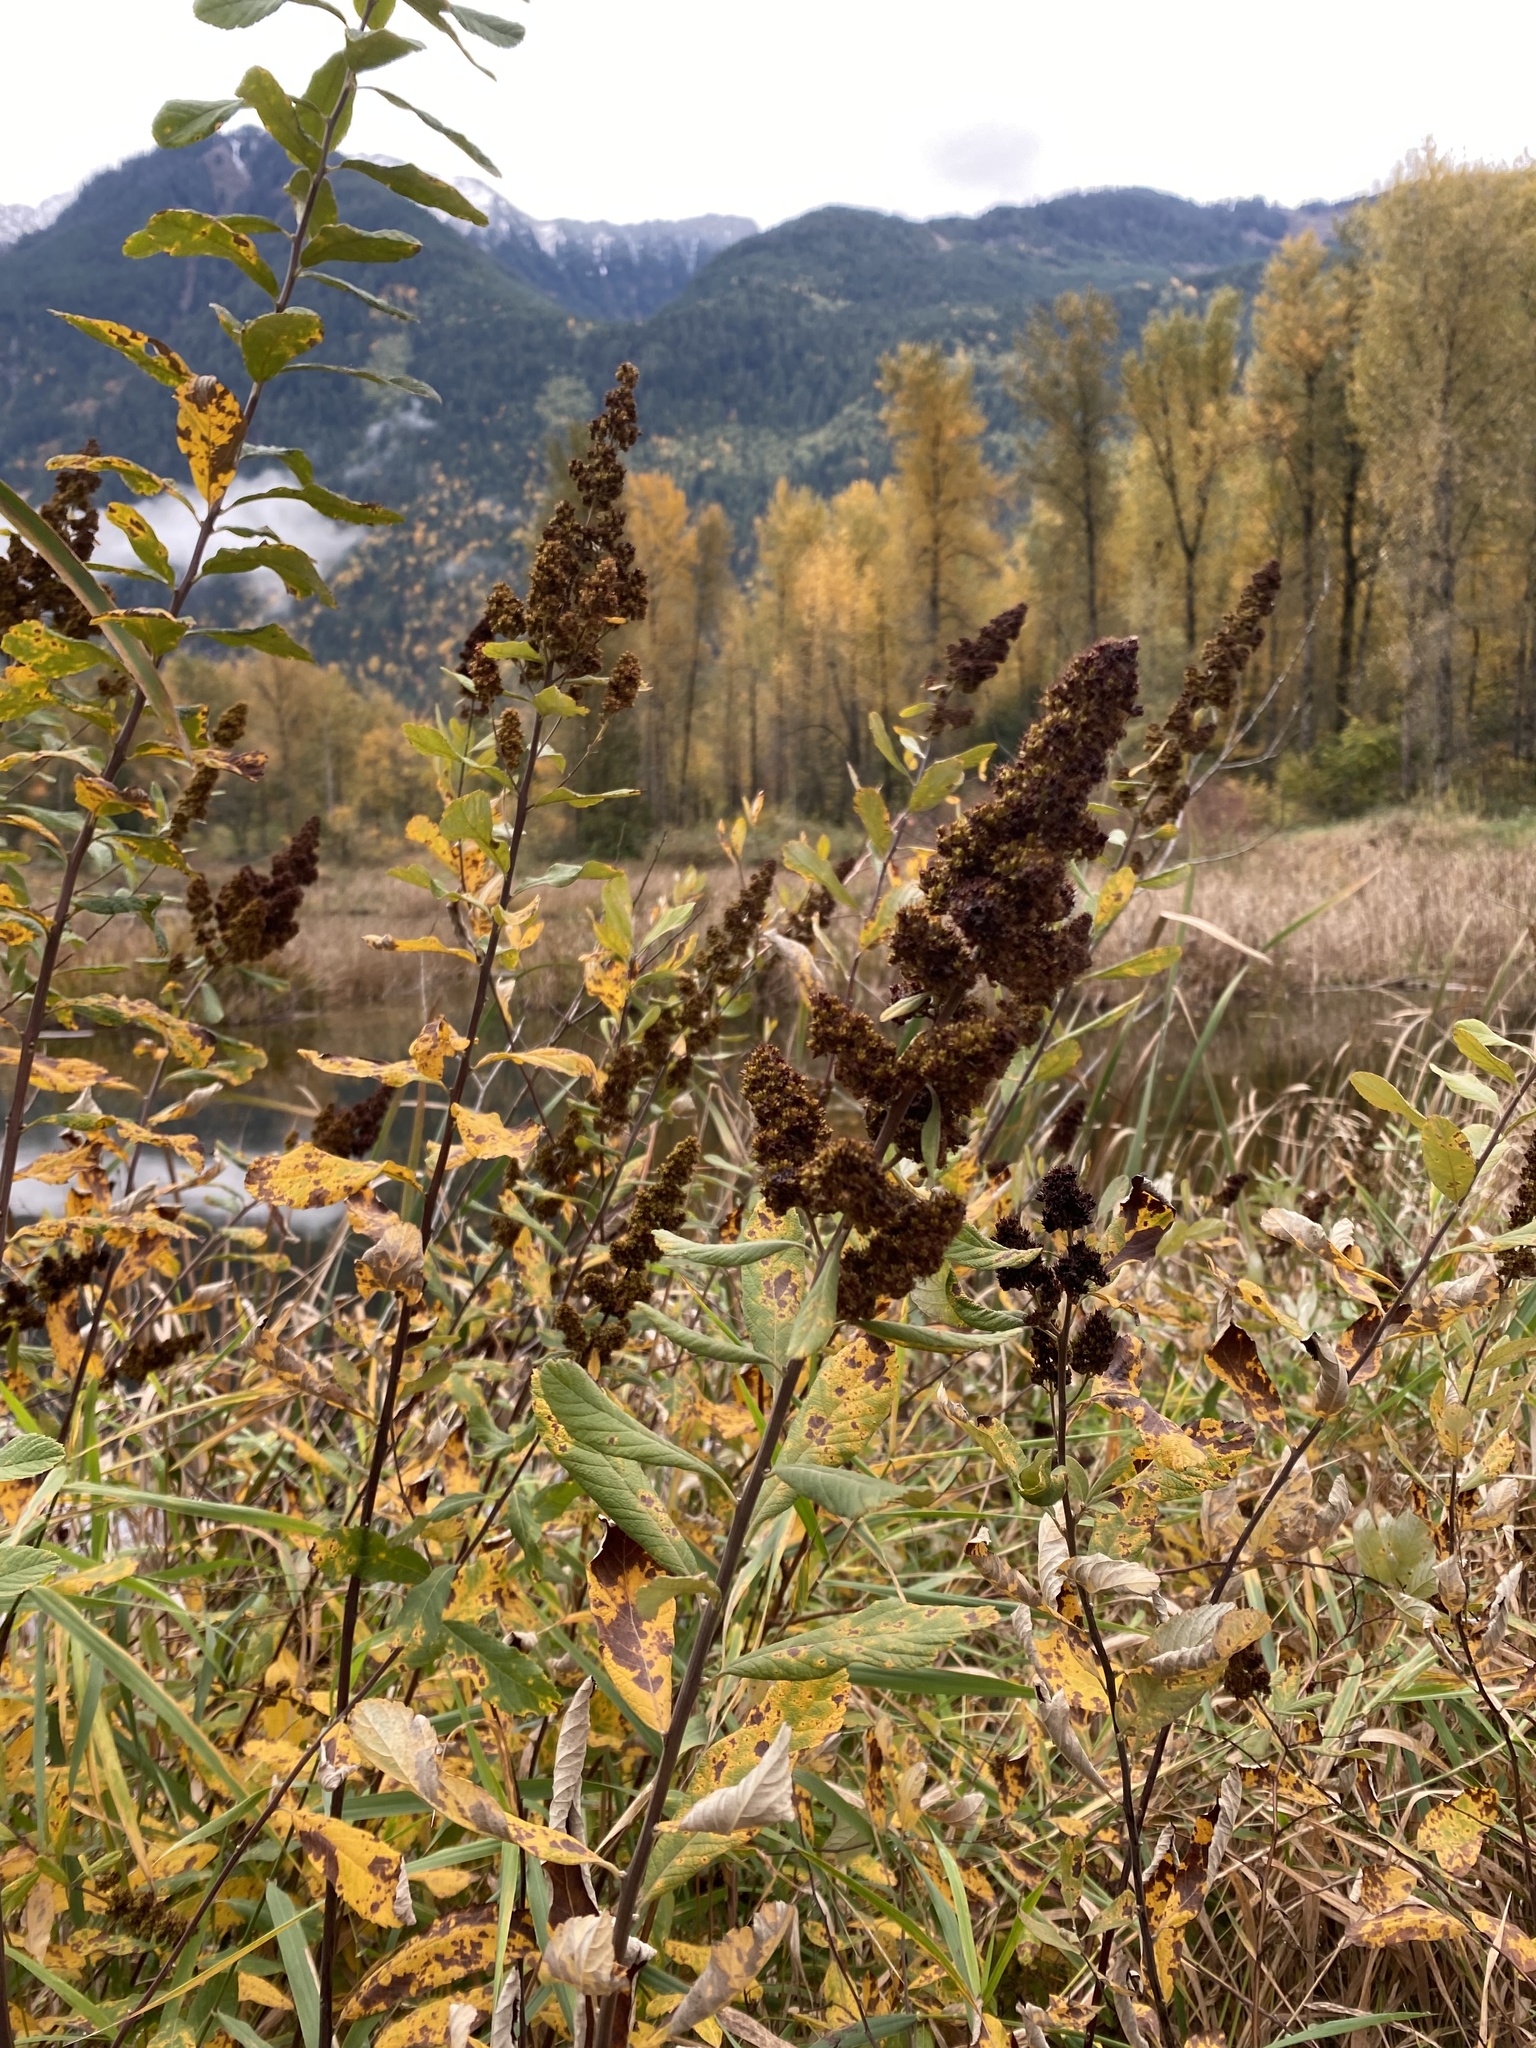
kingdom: Plantae
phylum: Tracheophyta
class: Magnoliopsida
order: Rosales
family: Rosaceae
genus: Spiraea
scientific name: Spiraea douglasii
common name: Steeplebush
